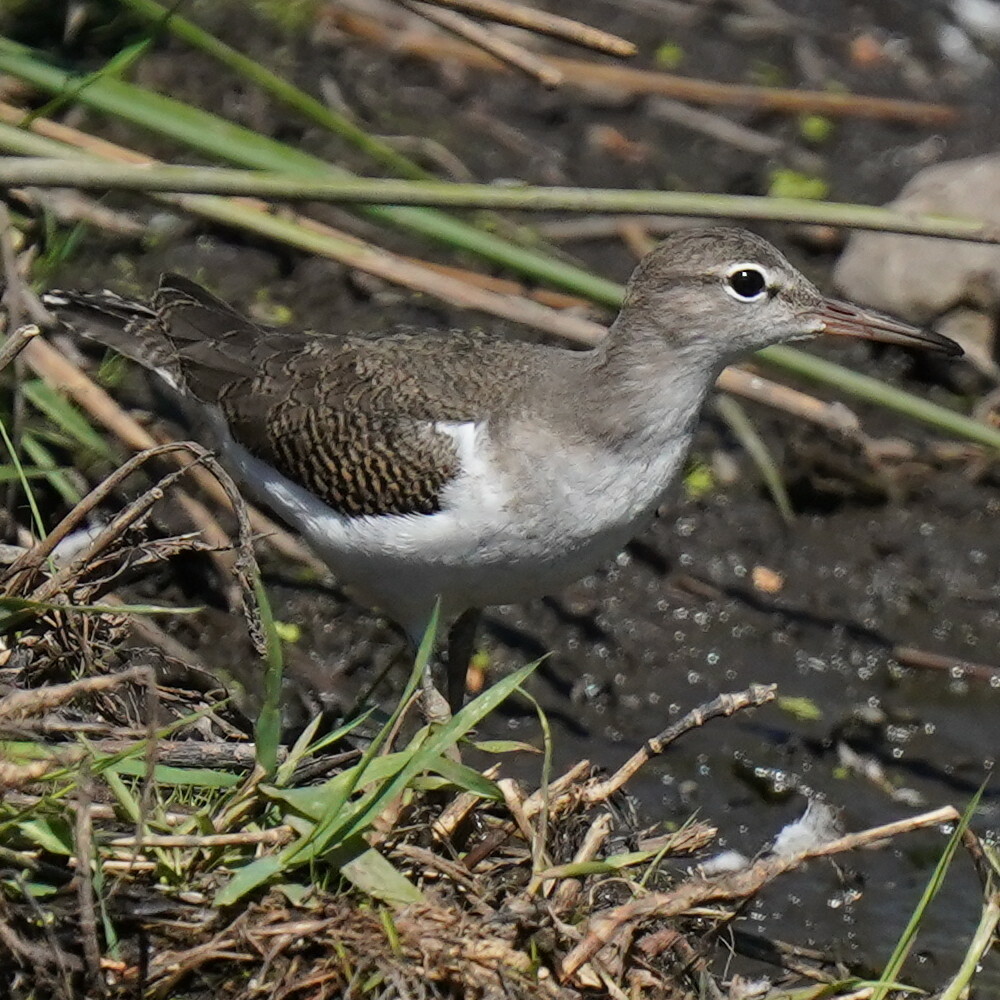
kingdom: Animalia
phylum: Chordata
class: Aves
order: Charadriiformes
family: Scolopacidae
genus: Actitis
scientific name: Actitis macularius
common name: Spotted sandpiper
